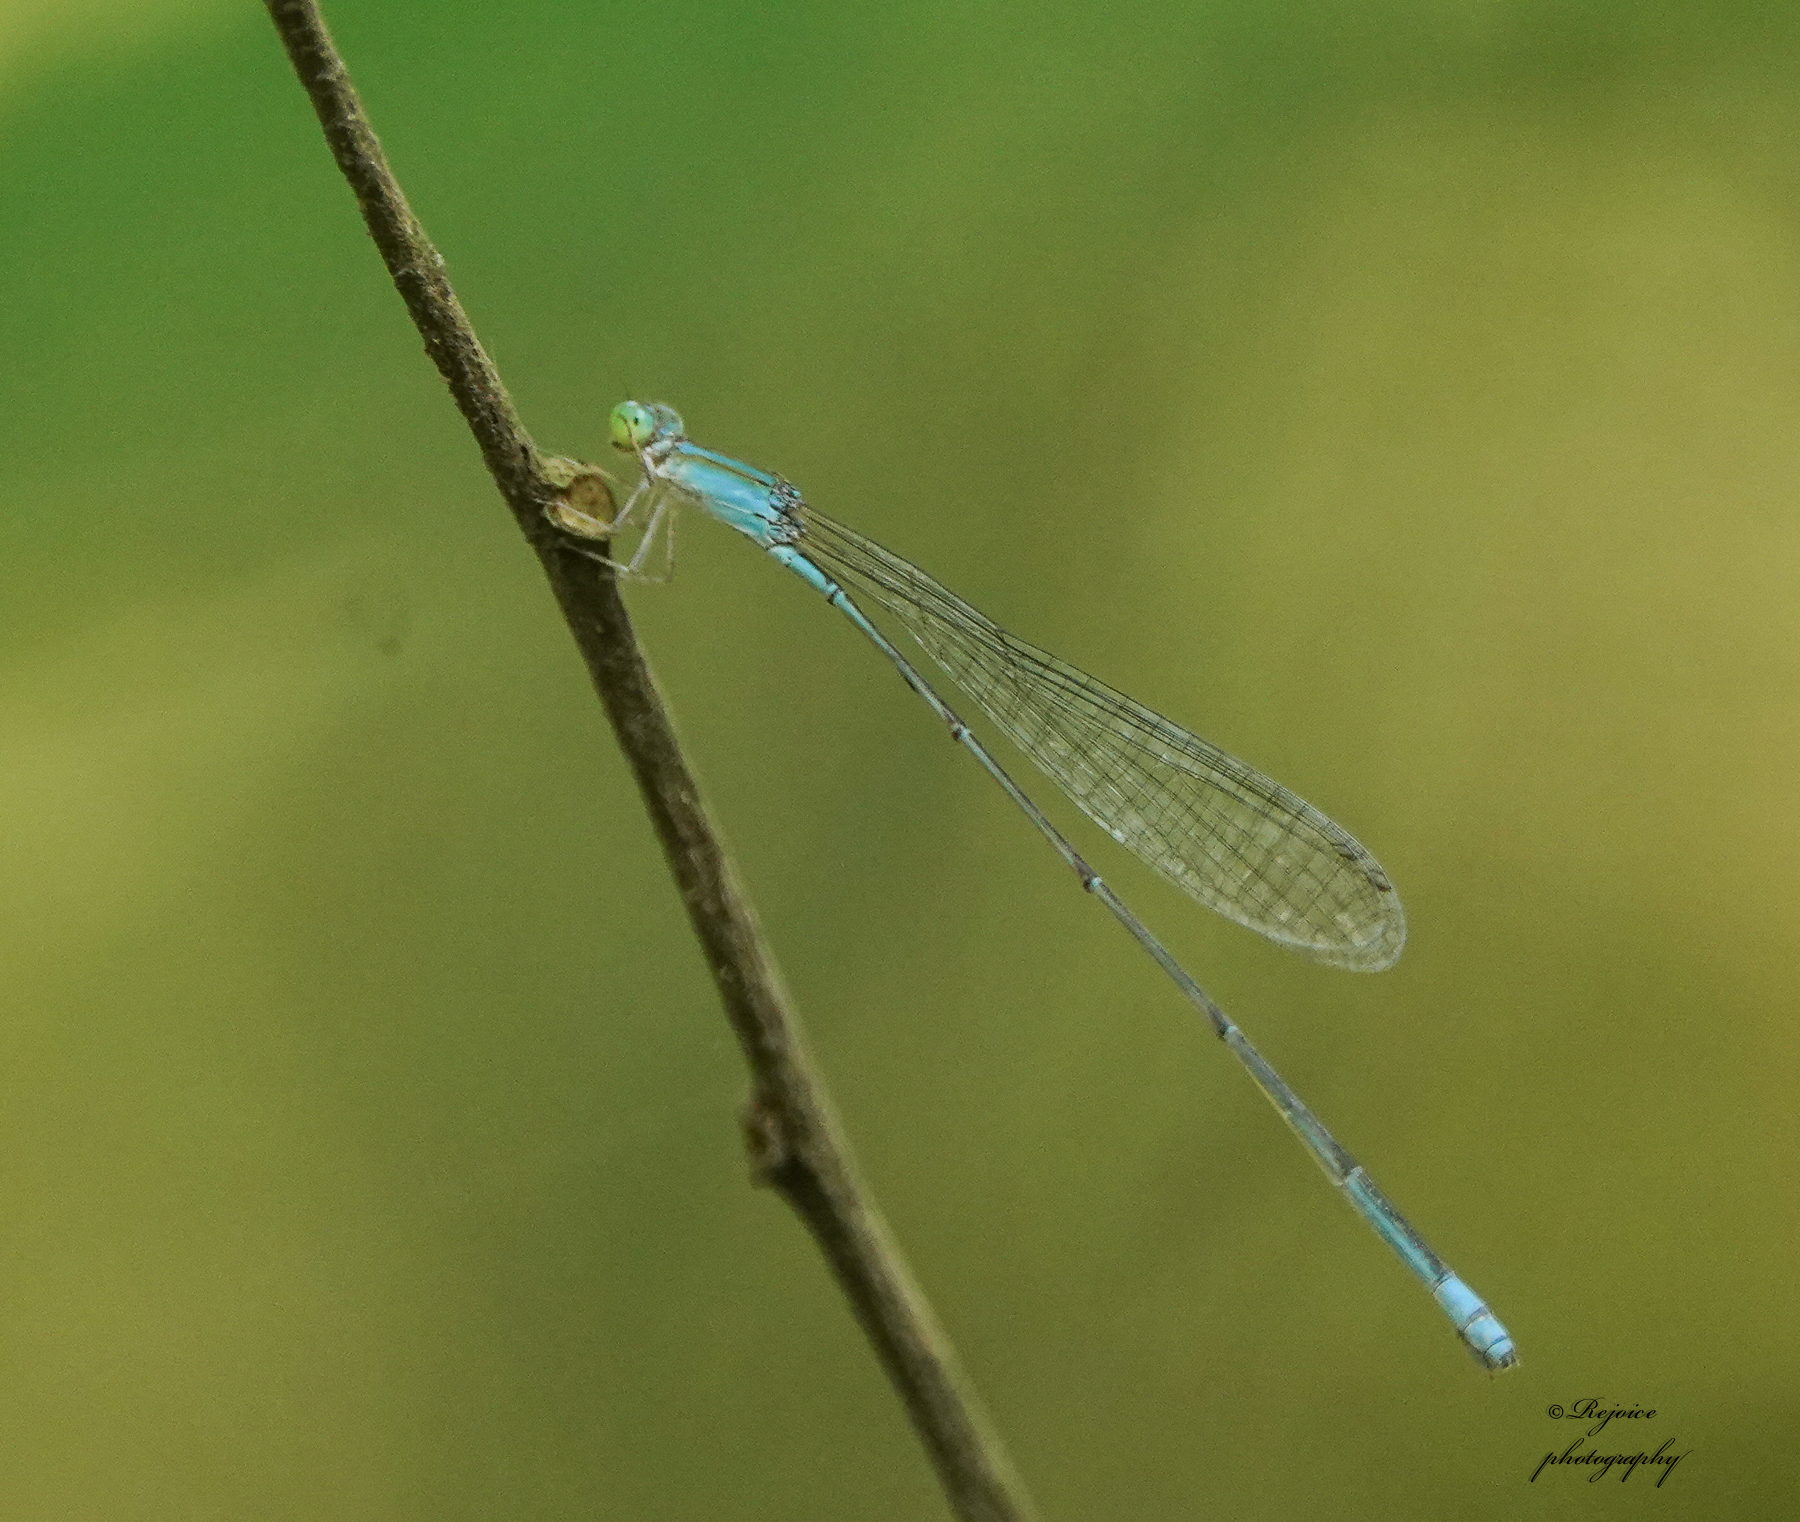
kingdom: Animalia
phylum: Arthropoda
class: Insecta
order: Odonata
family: Coenagrionidae
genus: Aciagrion
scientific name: Aciagrion pallidum
